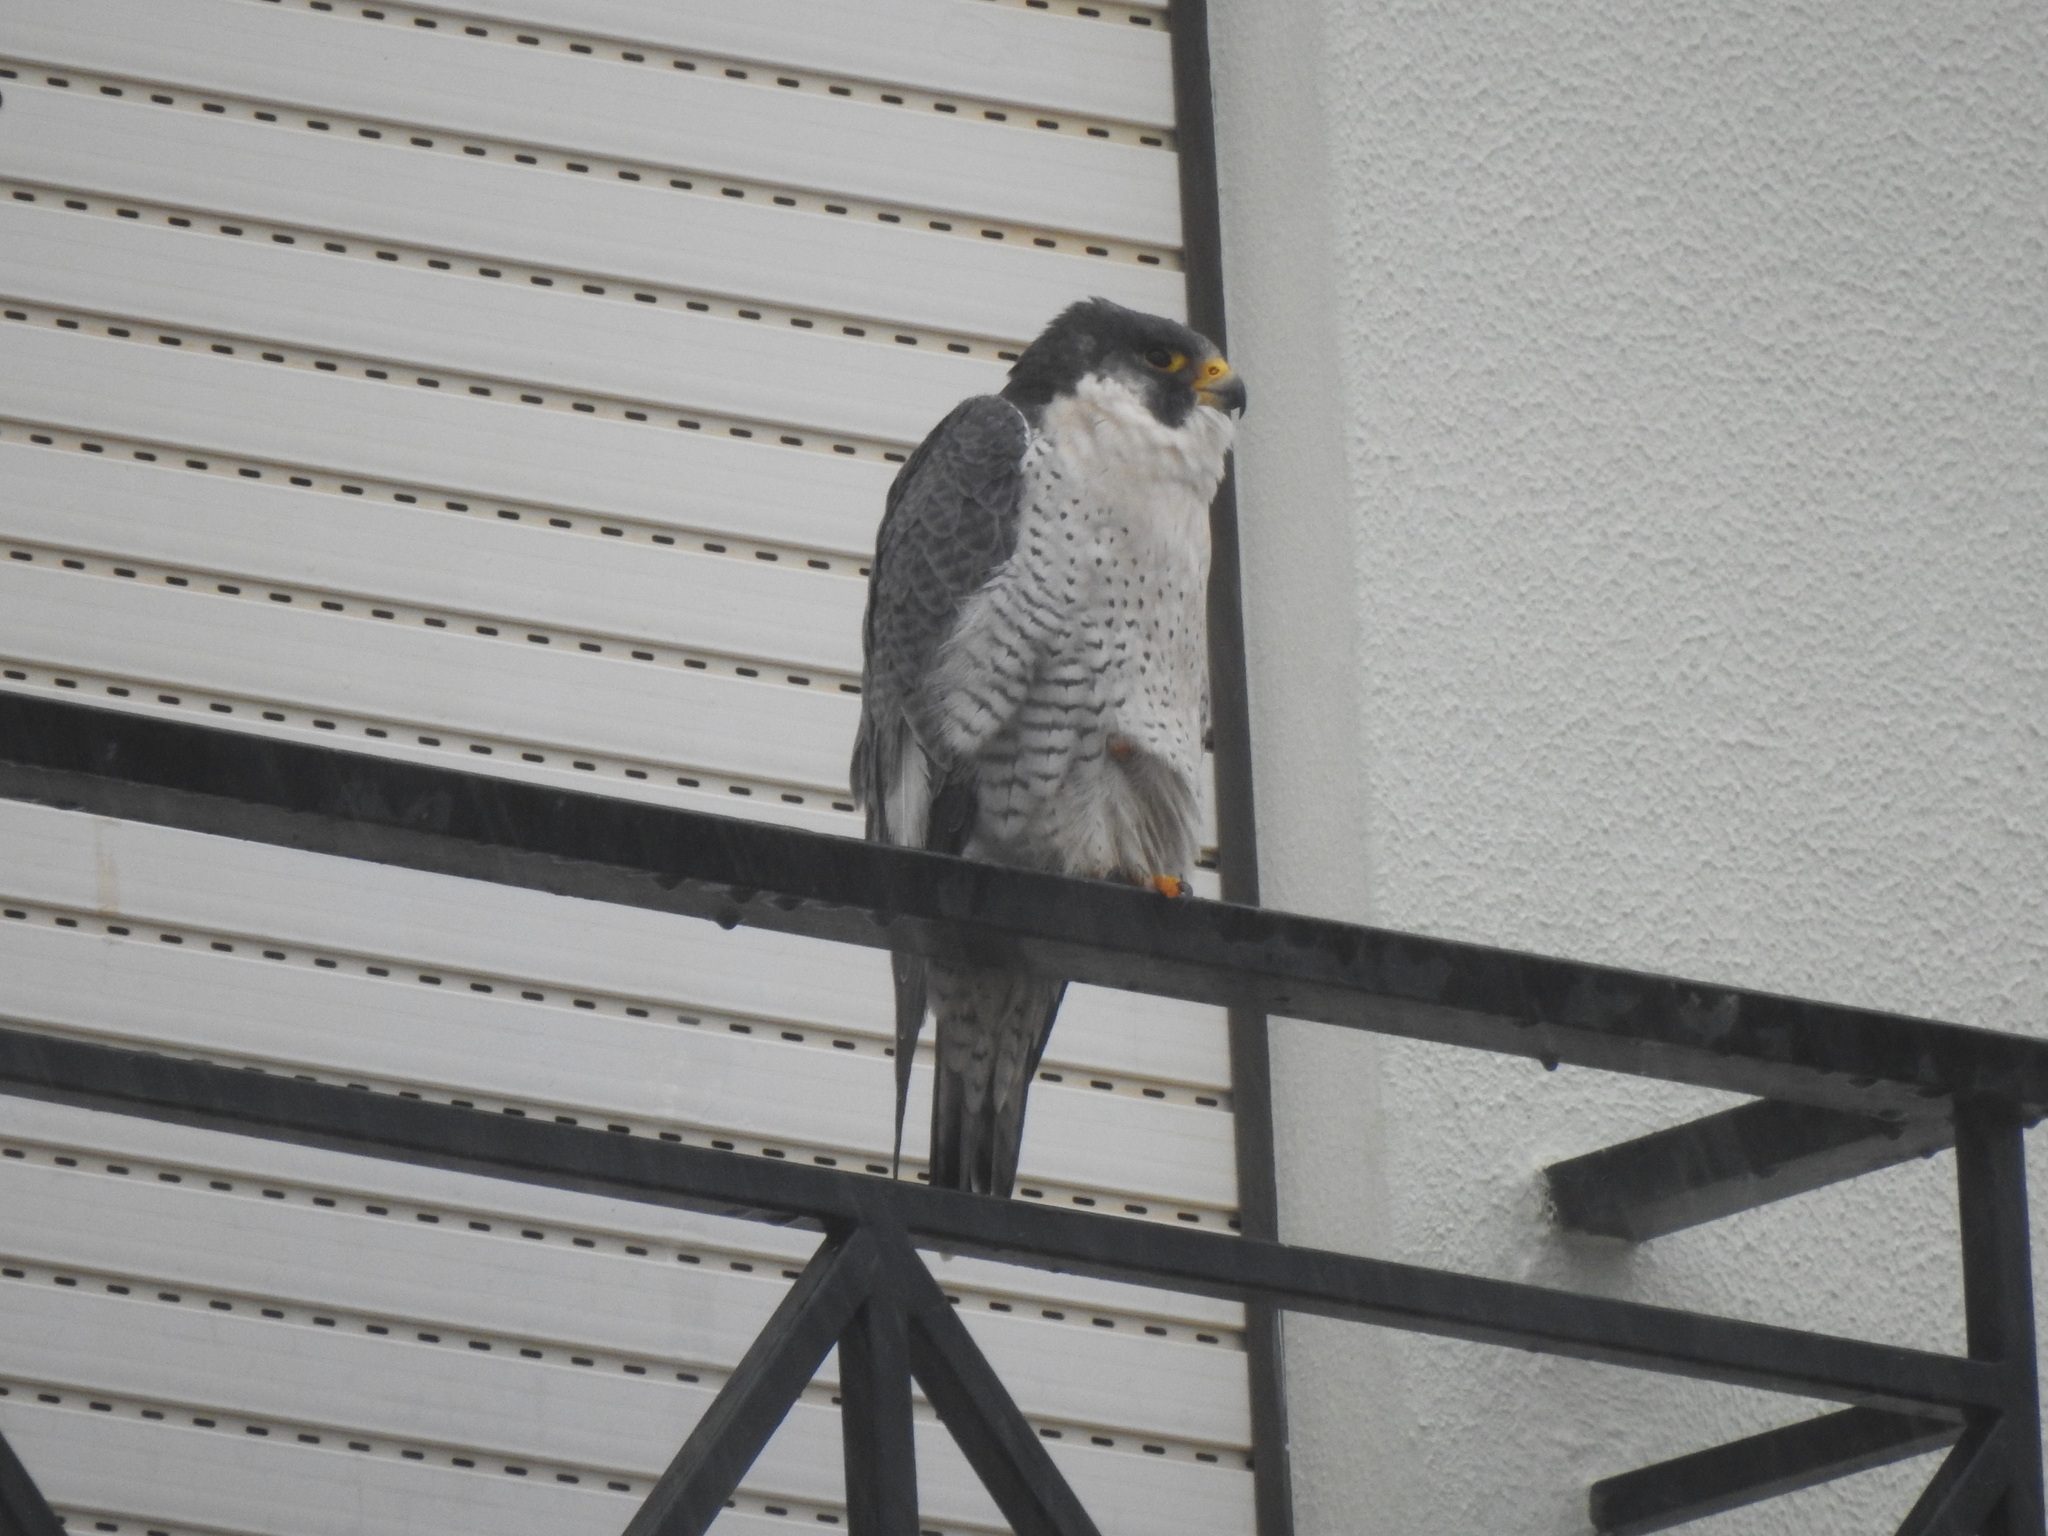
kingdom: Animalia
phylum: Chordata
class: Aves
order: Falconiformes
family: Falconidae
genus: Falco
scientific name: Falco peregrinus
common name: Peregrine falcon
